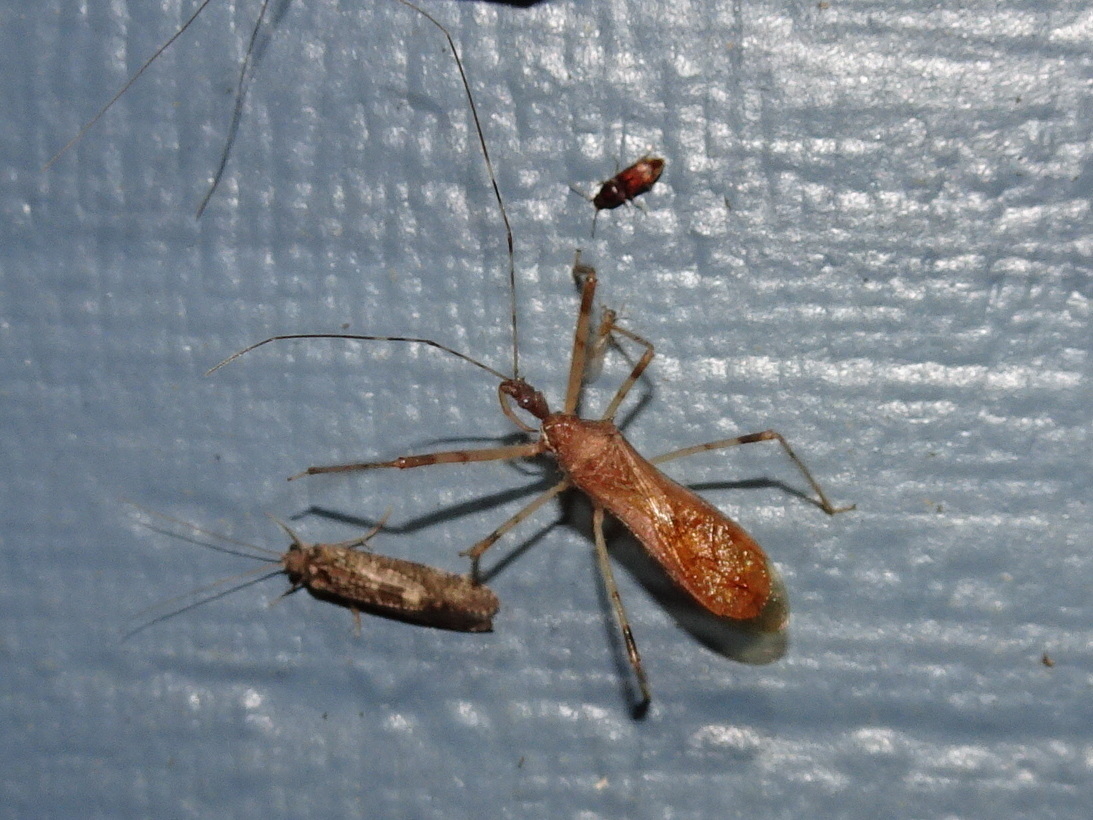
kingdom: Animalia
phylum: Arthropoda
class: Insecta
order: Hemiptera
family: Reduviidae
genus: Zelus
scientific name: Zelus tetracanthus
